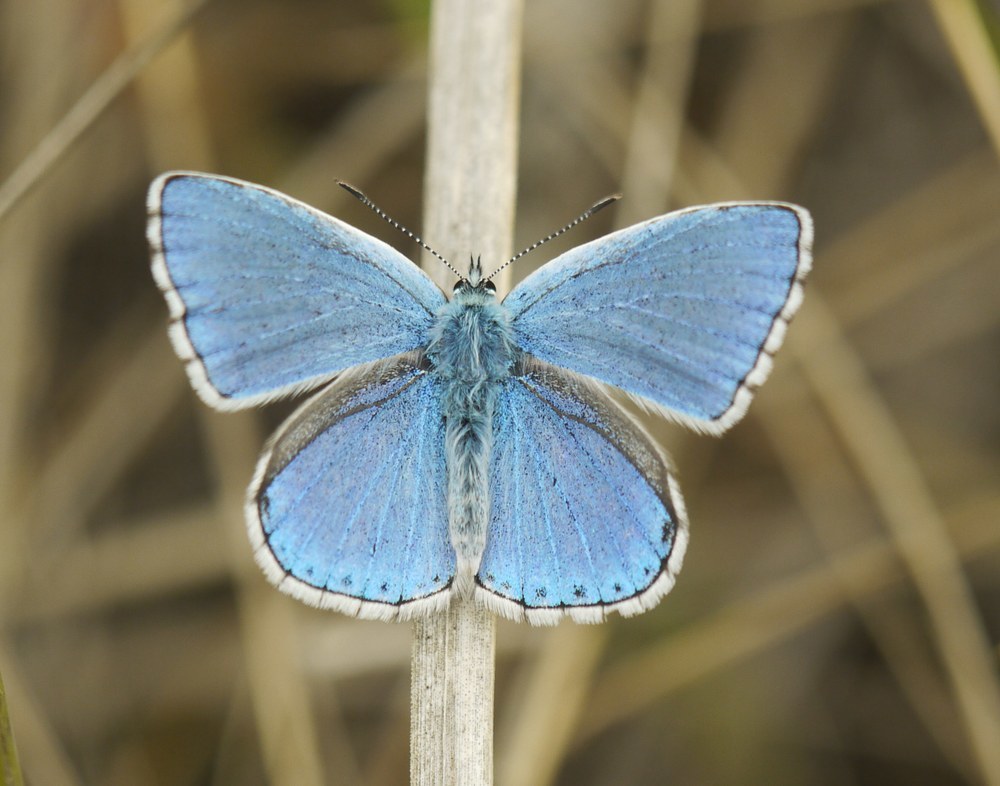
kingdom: Animalia
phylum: Arthropoda
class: Insecta
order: Lepidoptera
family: Lycaenidae
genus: Lysandra
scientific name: Lysandra bellargus
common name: Adonis blue
